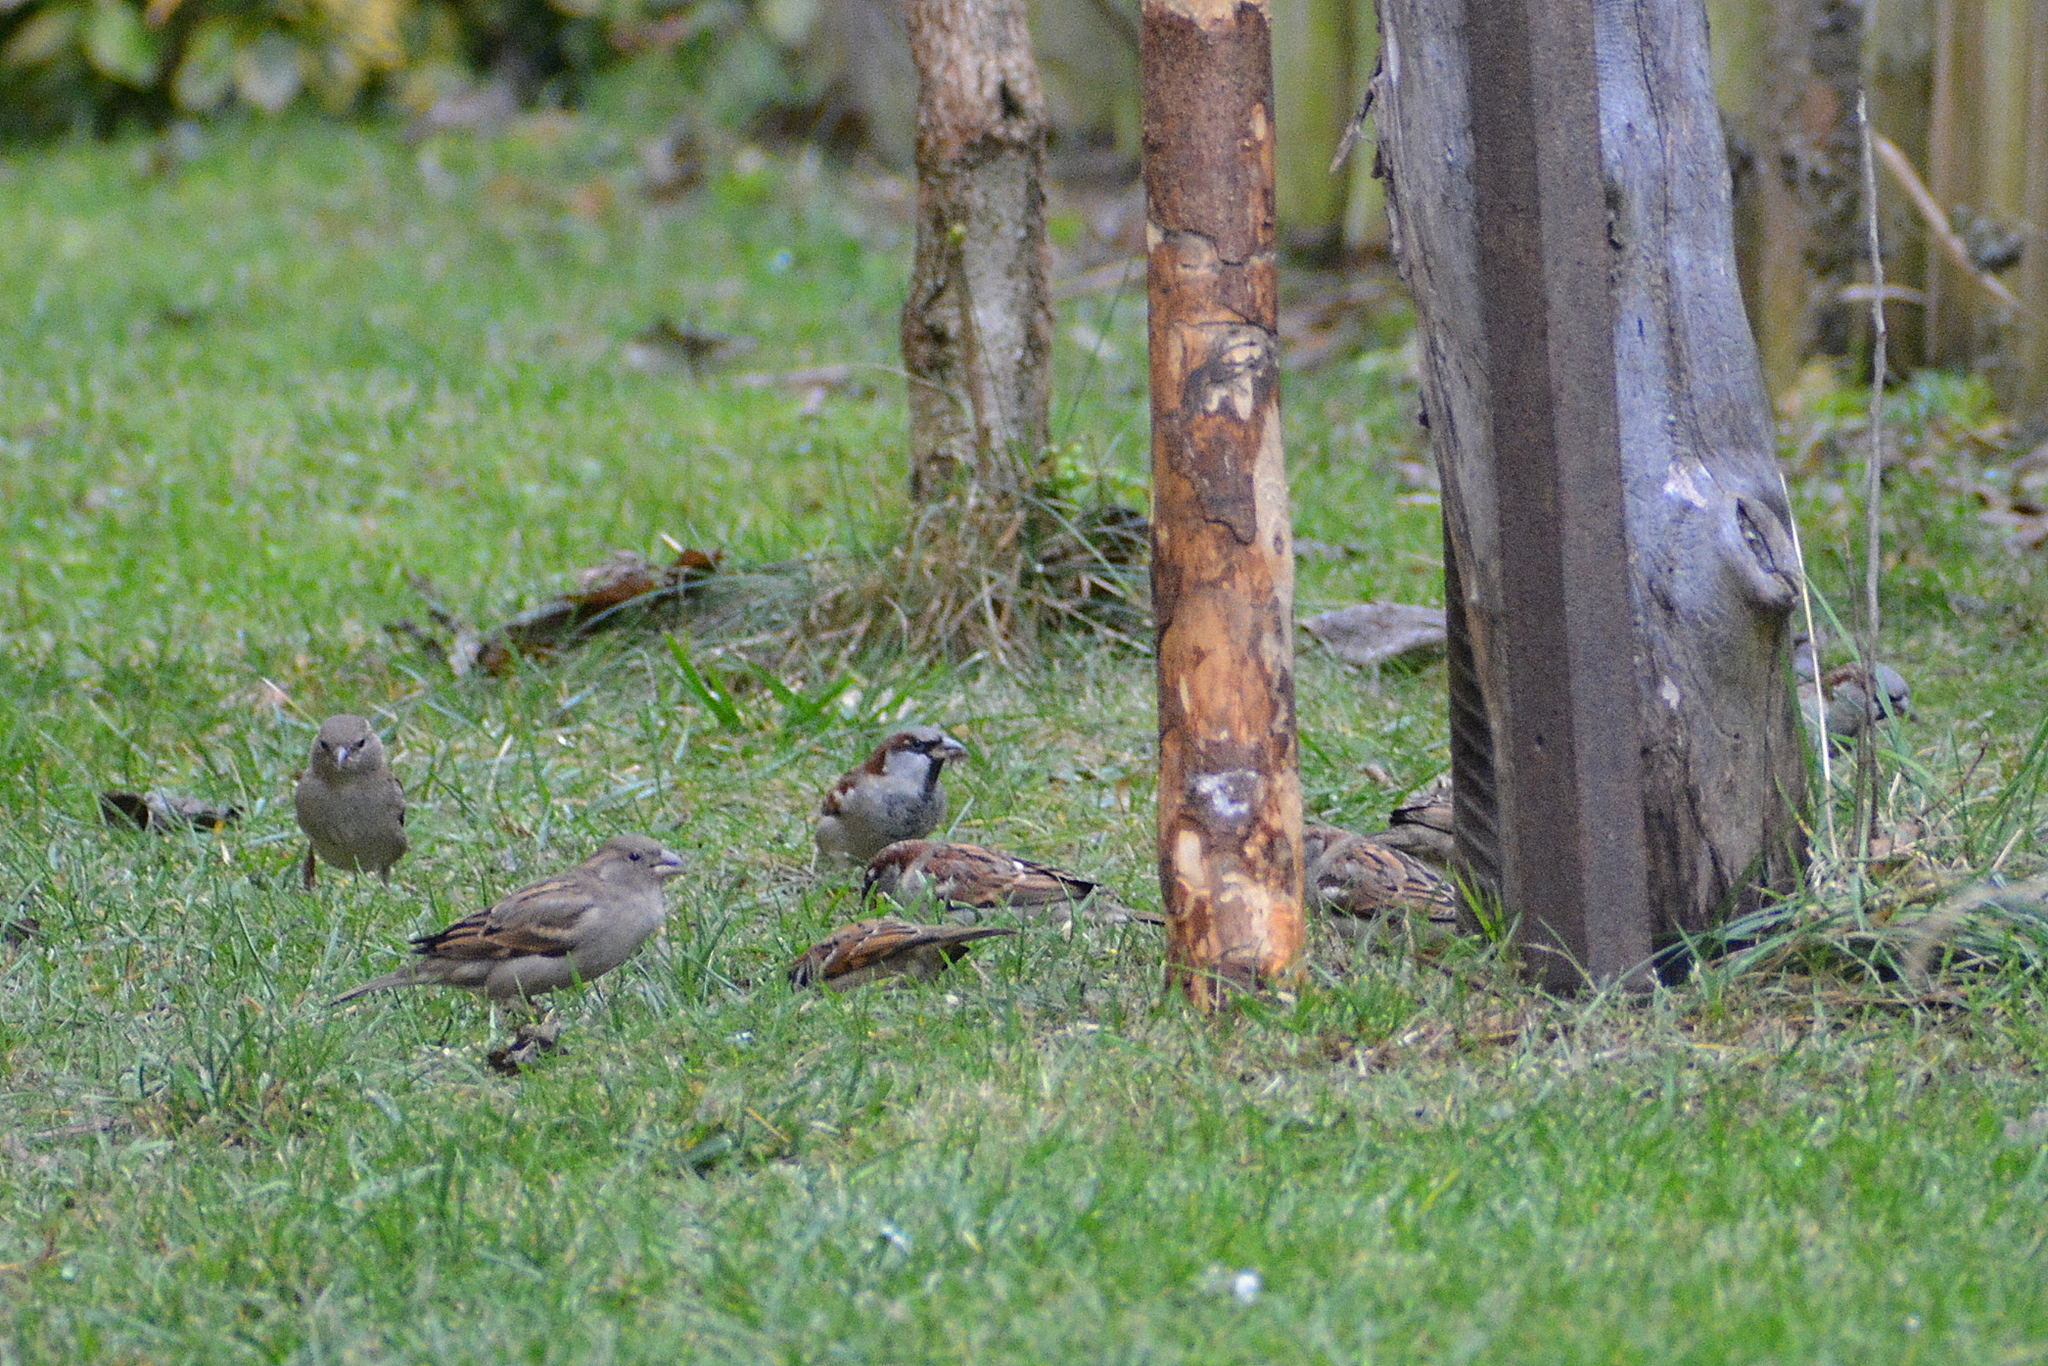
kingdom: Animalia
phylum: Chordata
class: Aves
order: Passeriformes
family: Passeridae
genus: Passer
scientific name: Passer domesticus
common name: House sparrow
